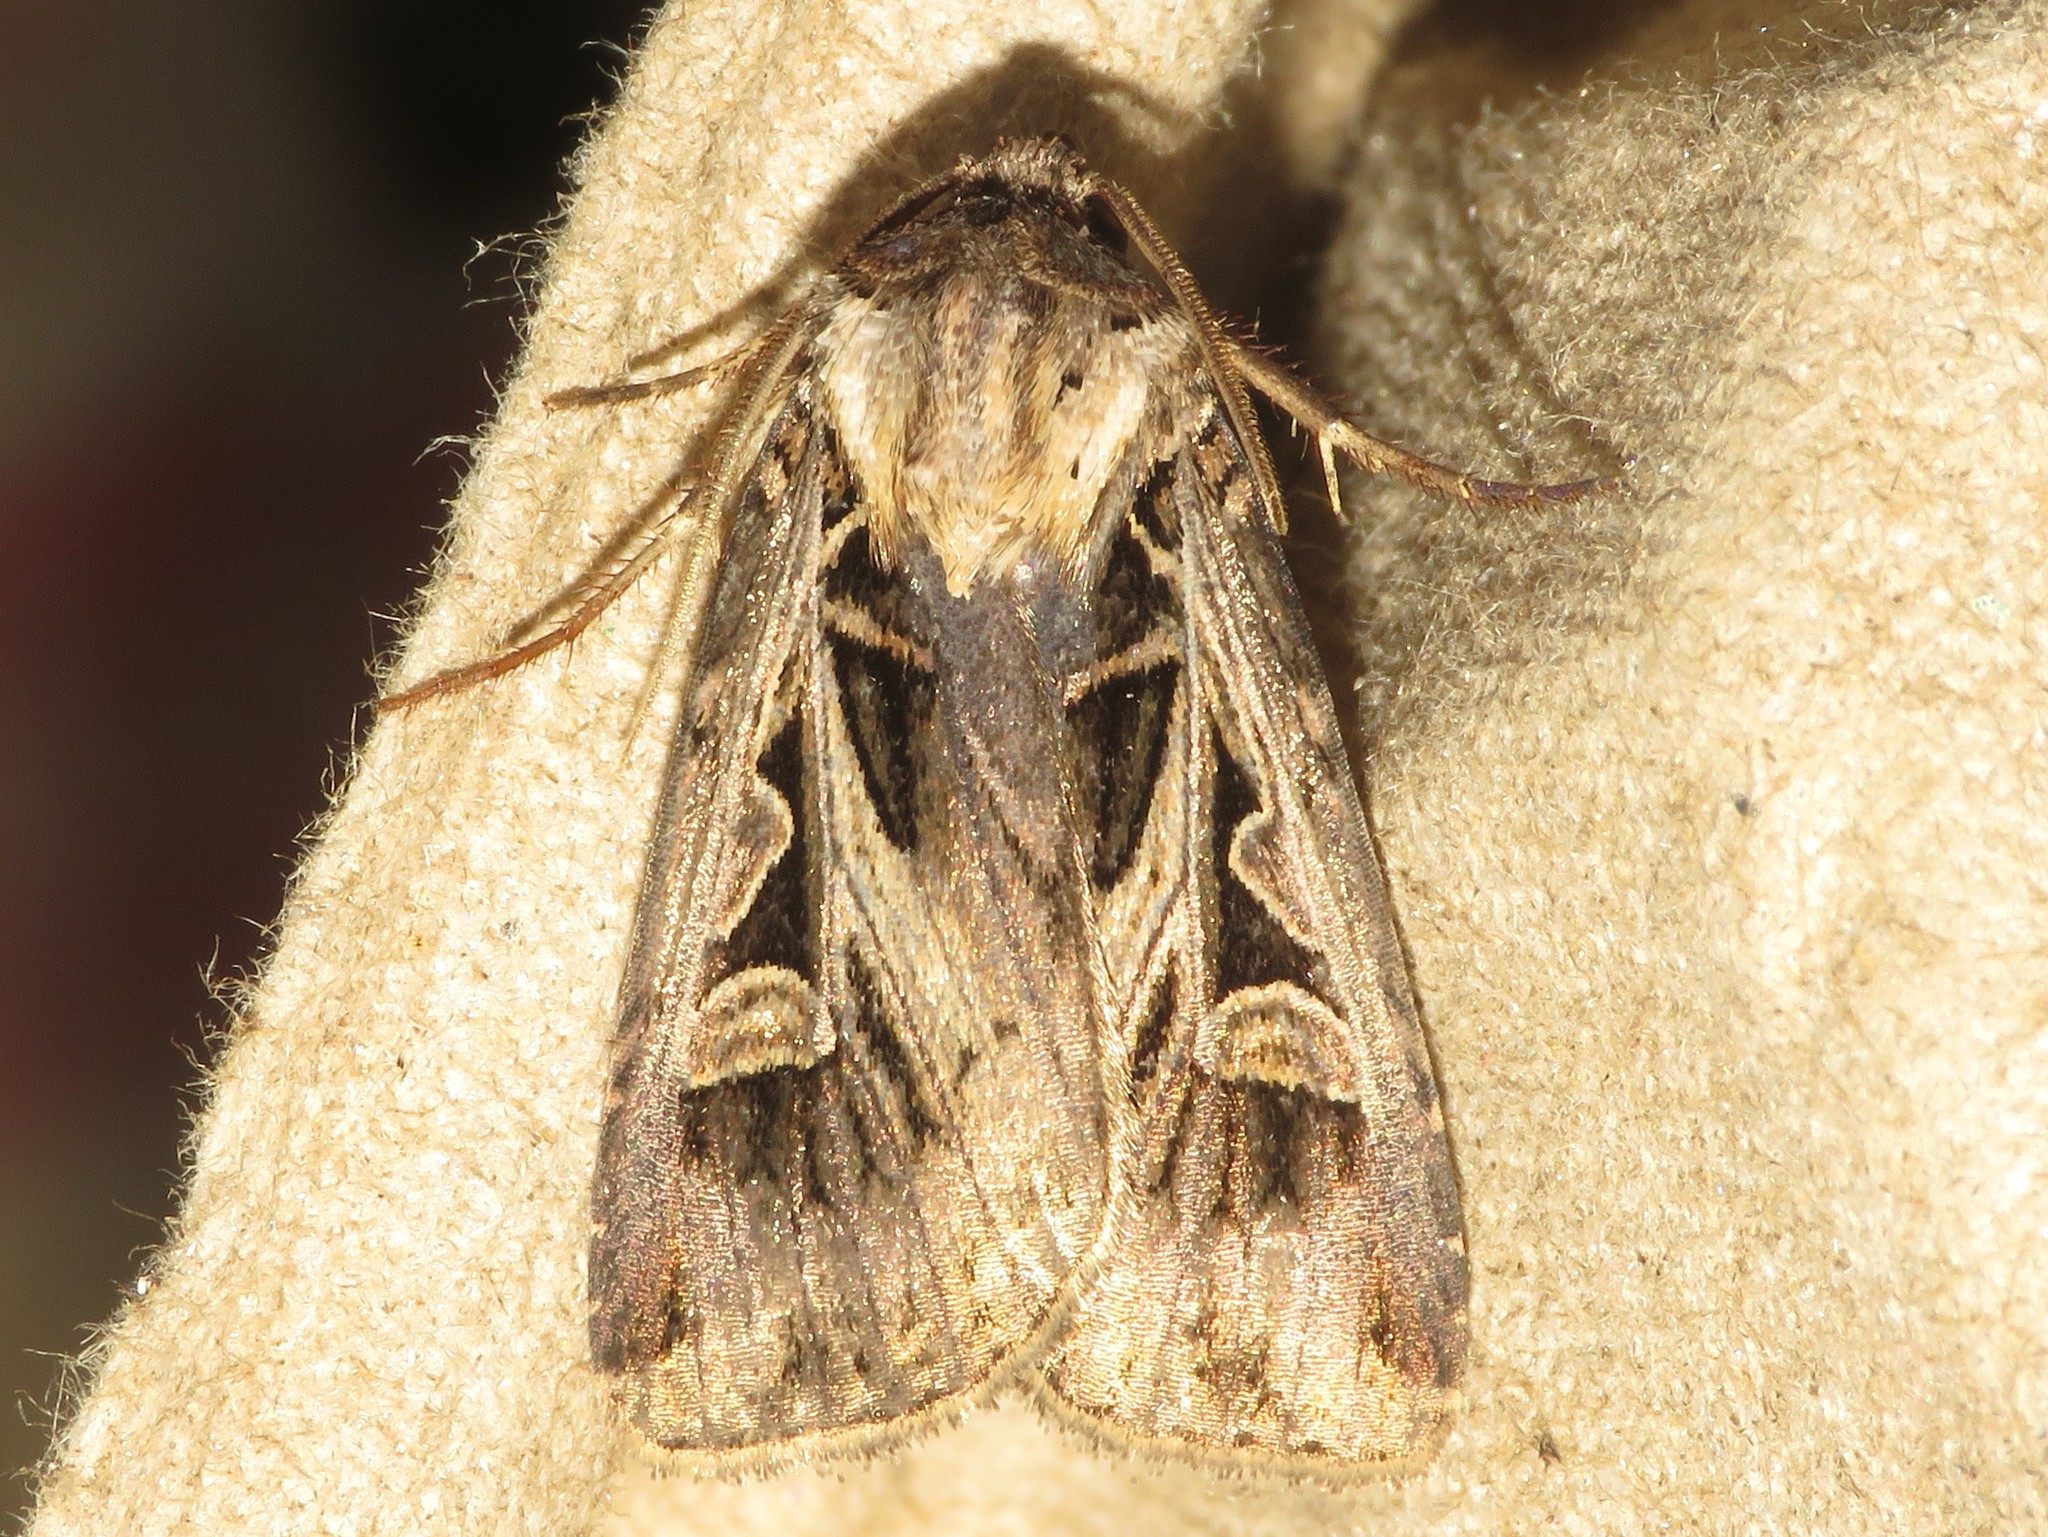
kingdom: Animalia
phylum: Arthropoda
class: Insecta
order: Lepidoptera
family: Noctuidae
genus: Feltia
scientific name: Feltia tricosa
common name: Confused dart moth
